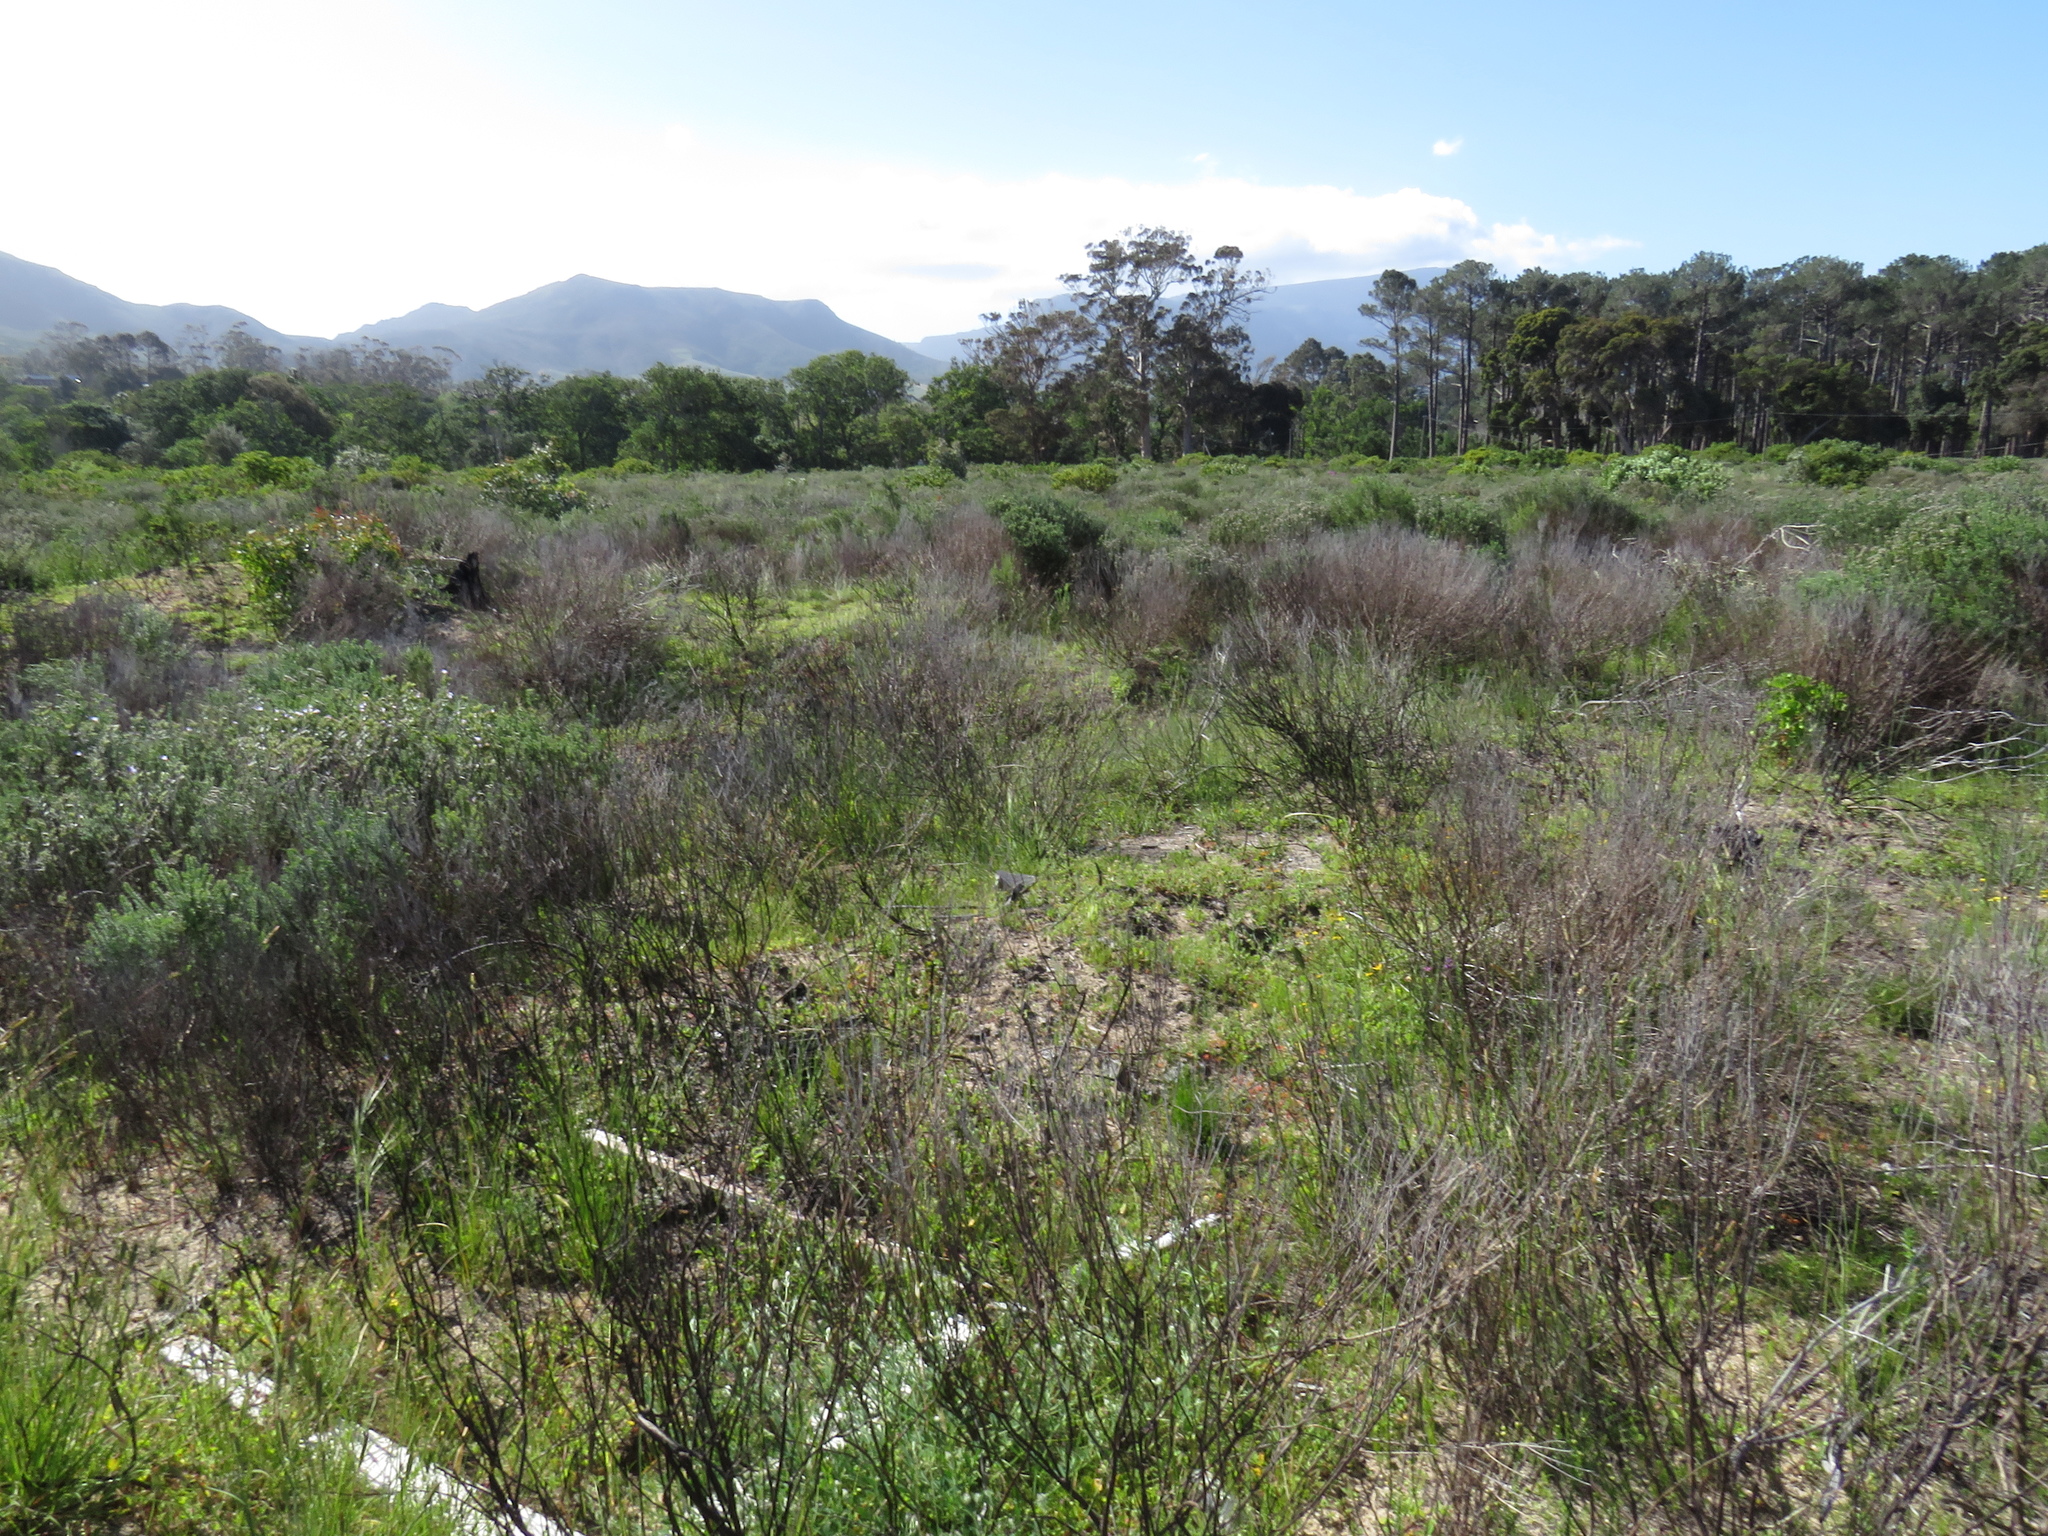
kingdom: Plantae
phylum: Tracheophyta
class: Magnoliopsida
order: Geraniales
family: Geraniaceae
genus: Pelargonium
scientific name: Pelargonium althaeoides
